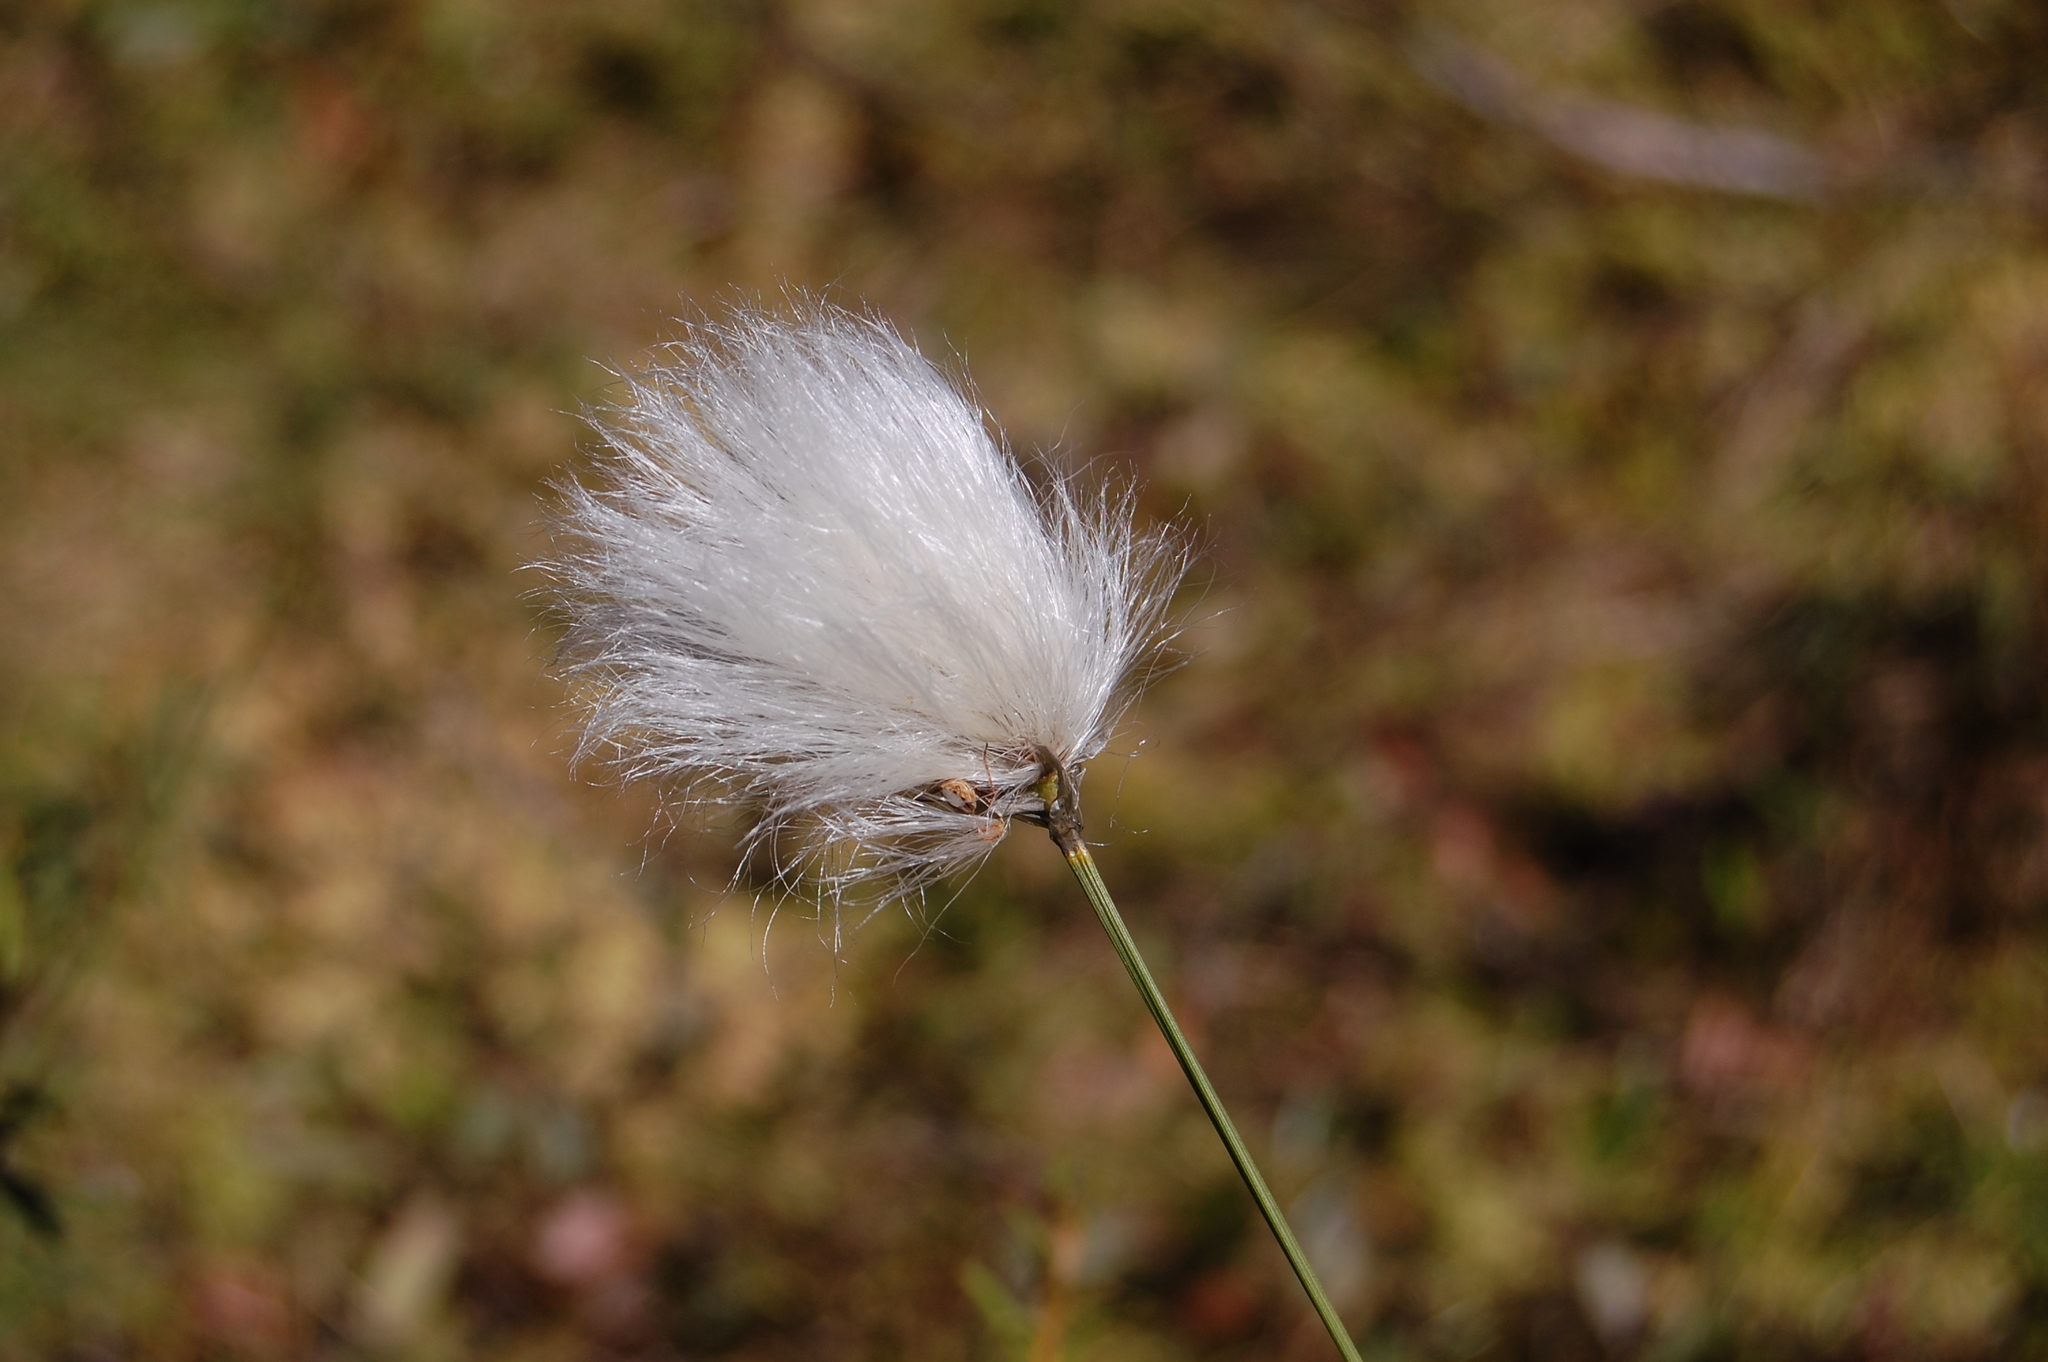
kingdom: Plantae
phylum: Tracheophyta
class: Liliopsida
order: Poales
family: Cyperaceae
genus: Eriophorum
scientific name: Eriophorum vaginatum
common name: Hare's-tail cottongrass
